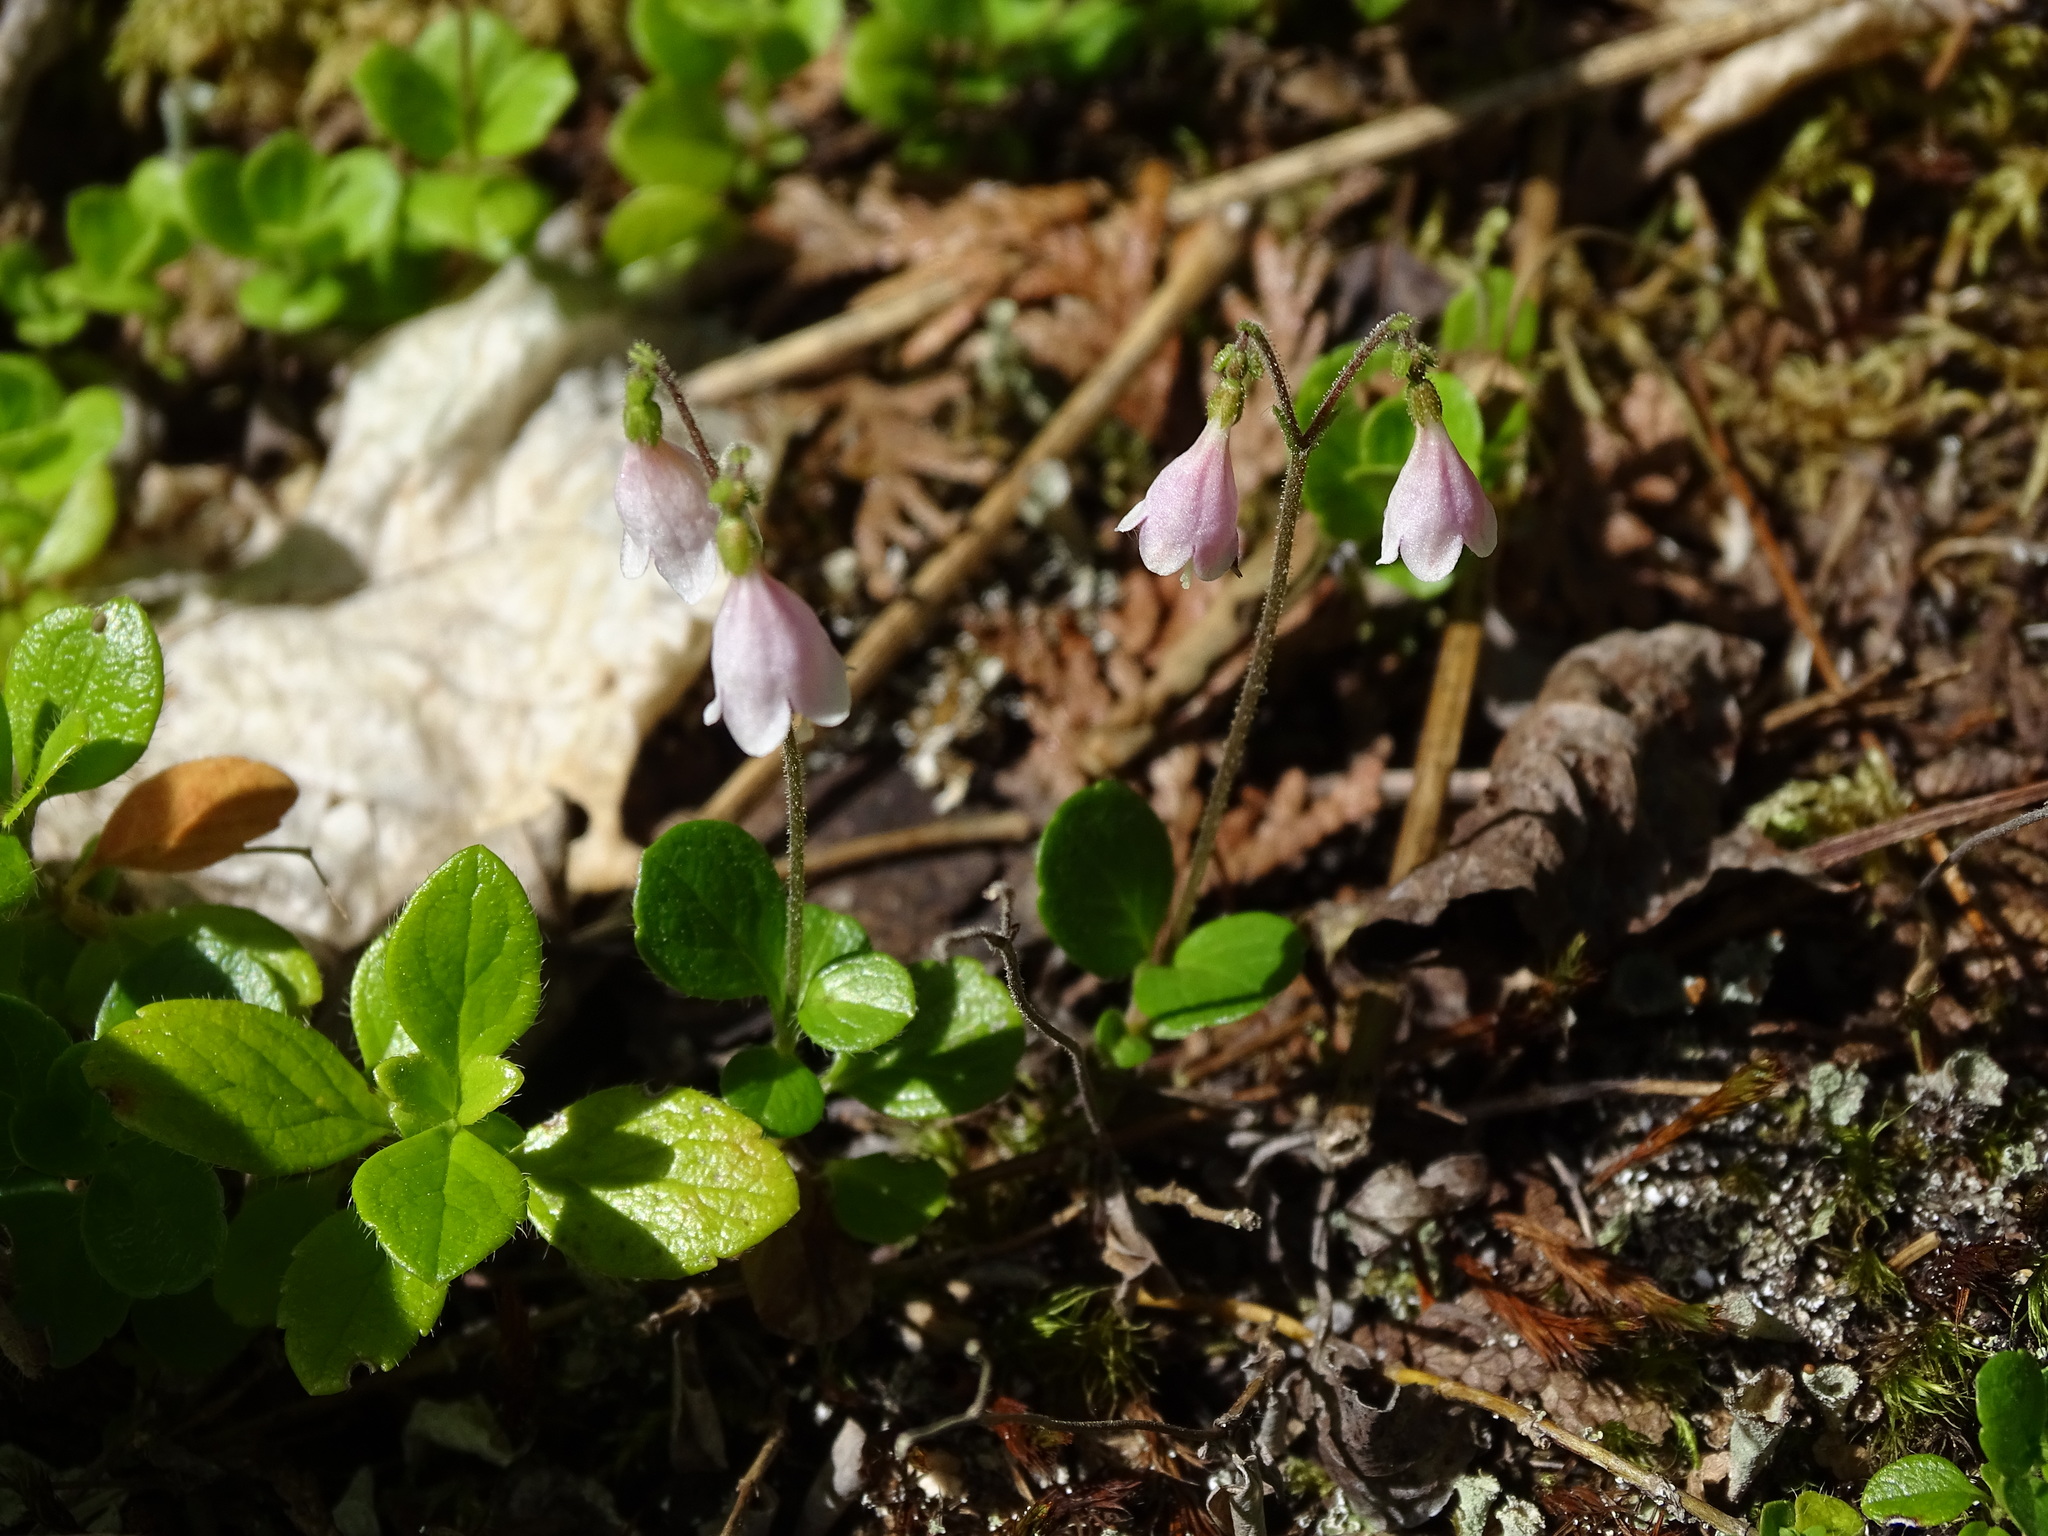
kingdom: Plantae
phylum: Tracheophyta
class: Magnoliopsida
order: Dipsacales
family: Caprifoliaceae
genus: Linnaea
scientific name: Linnaea borealis
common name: Twinflower
